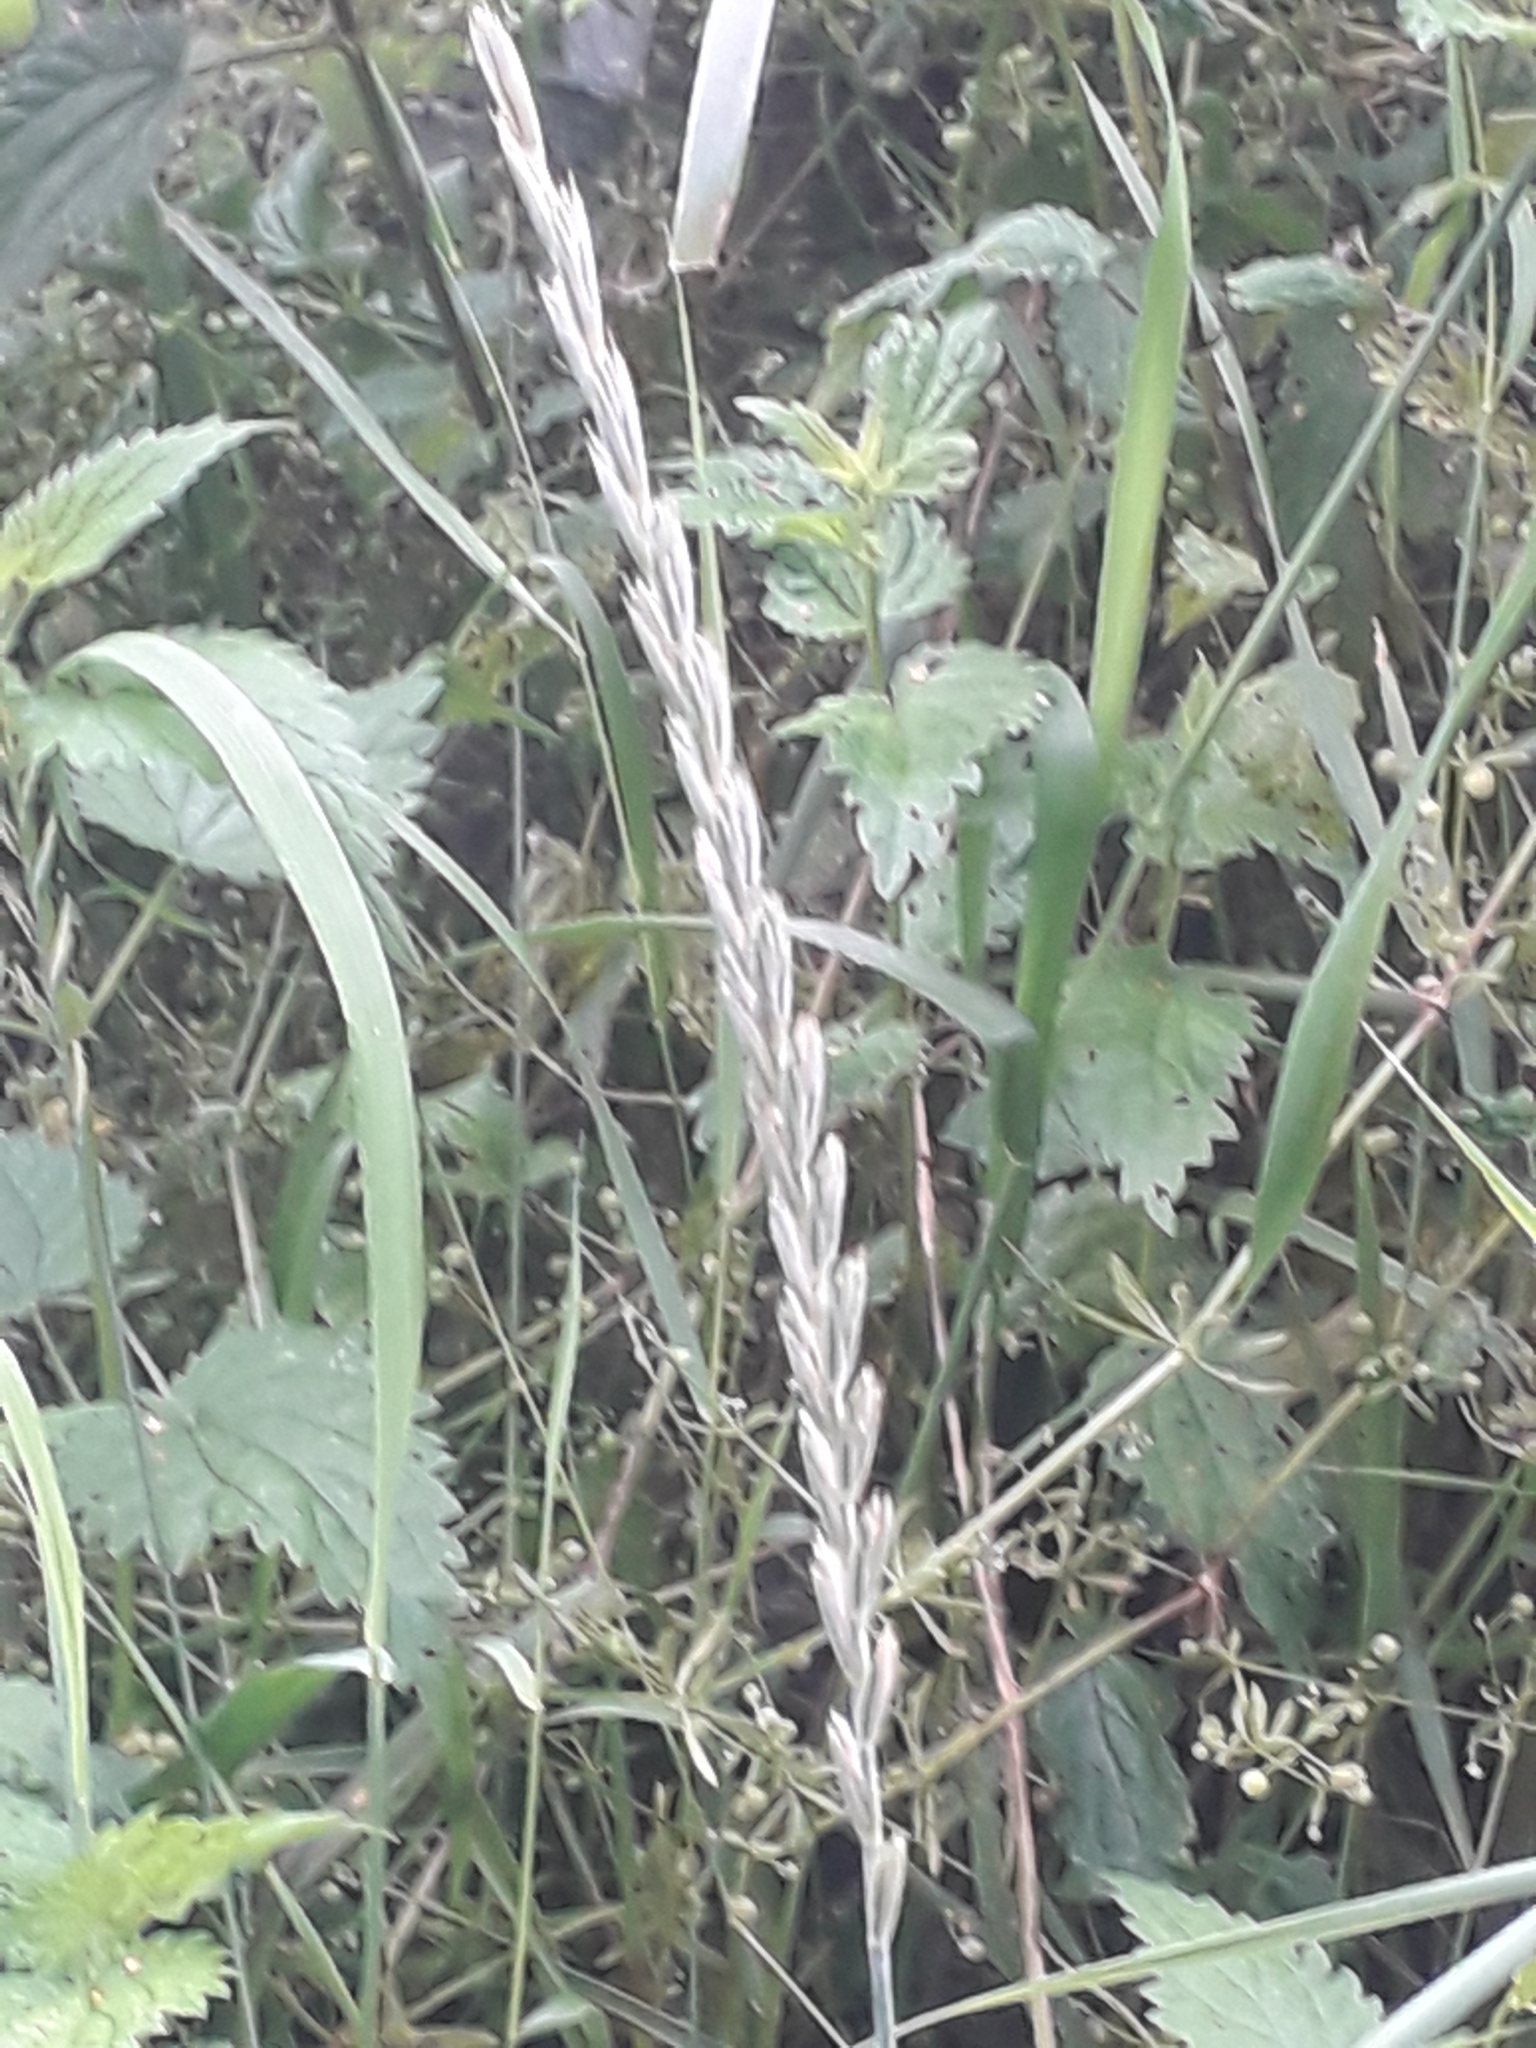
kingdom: Plantae
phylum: Tracheophyta
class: Liliopsida
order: Poales
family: Poaceae
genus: Elymus
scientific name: Elymus repens
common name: Quackgrass
